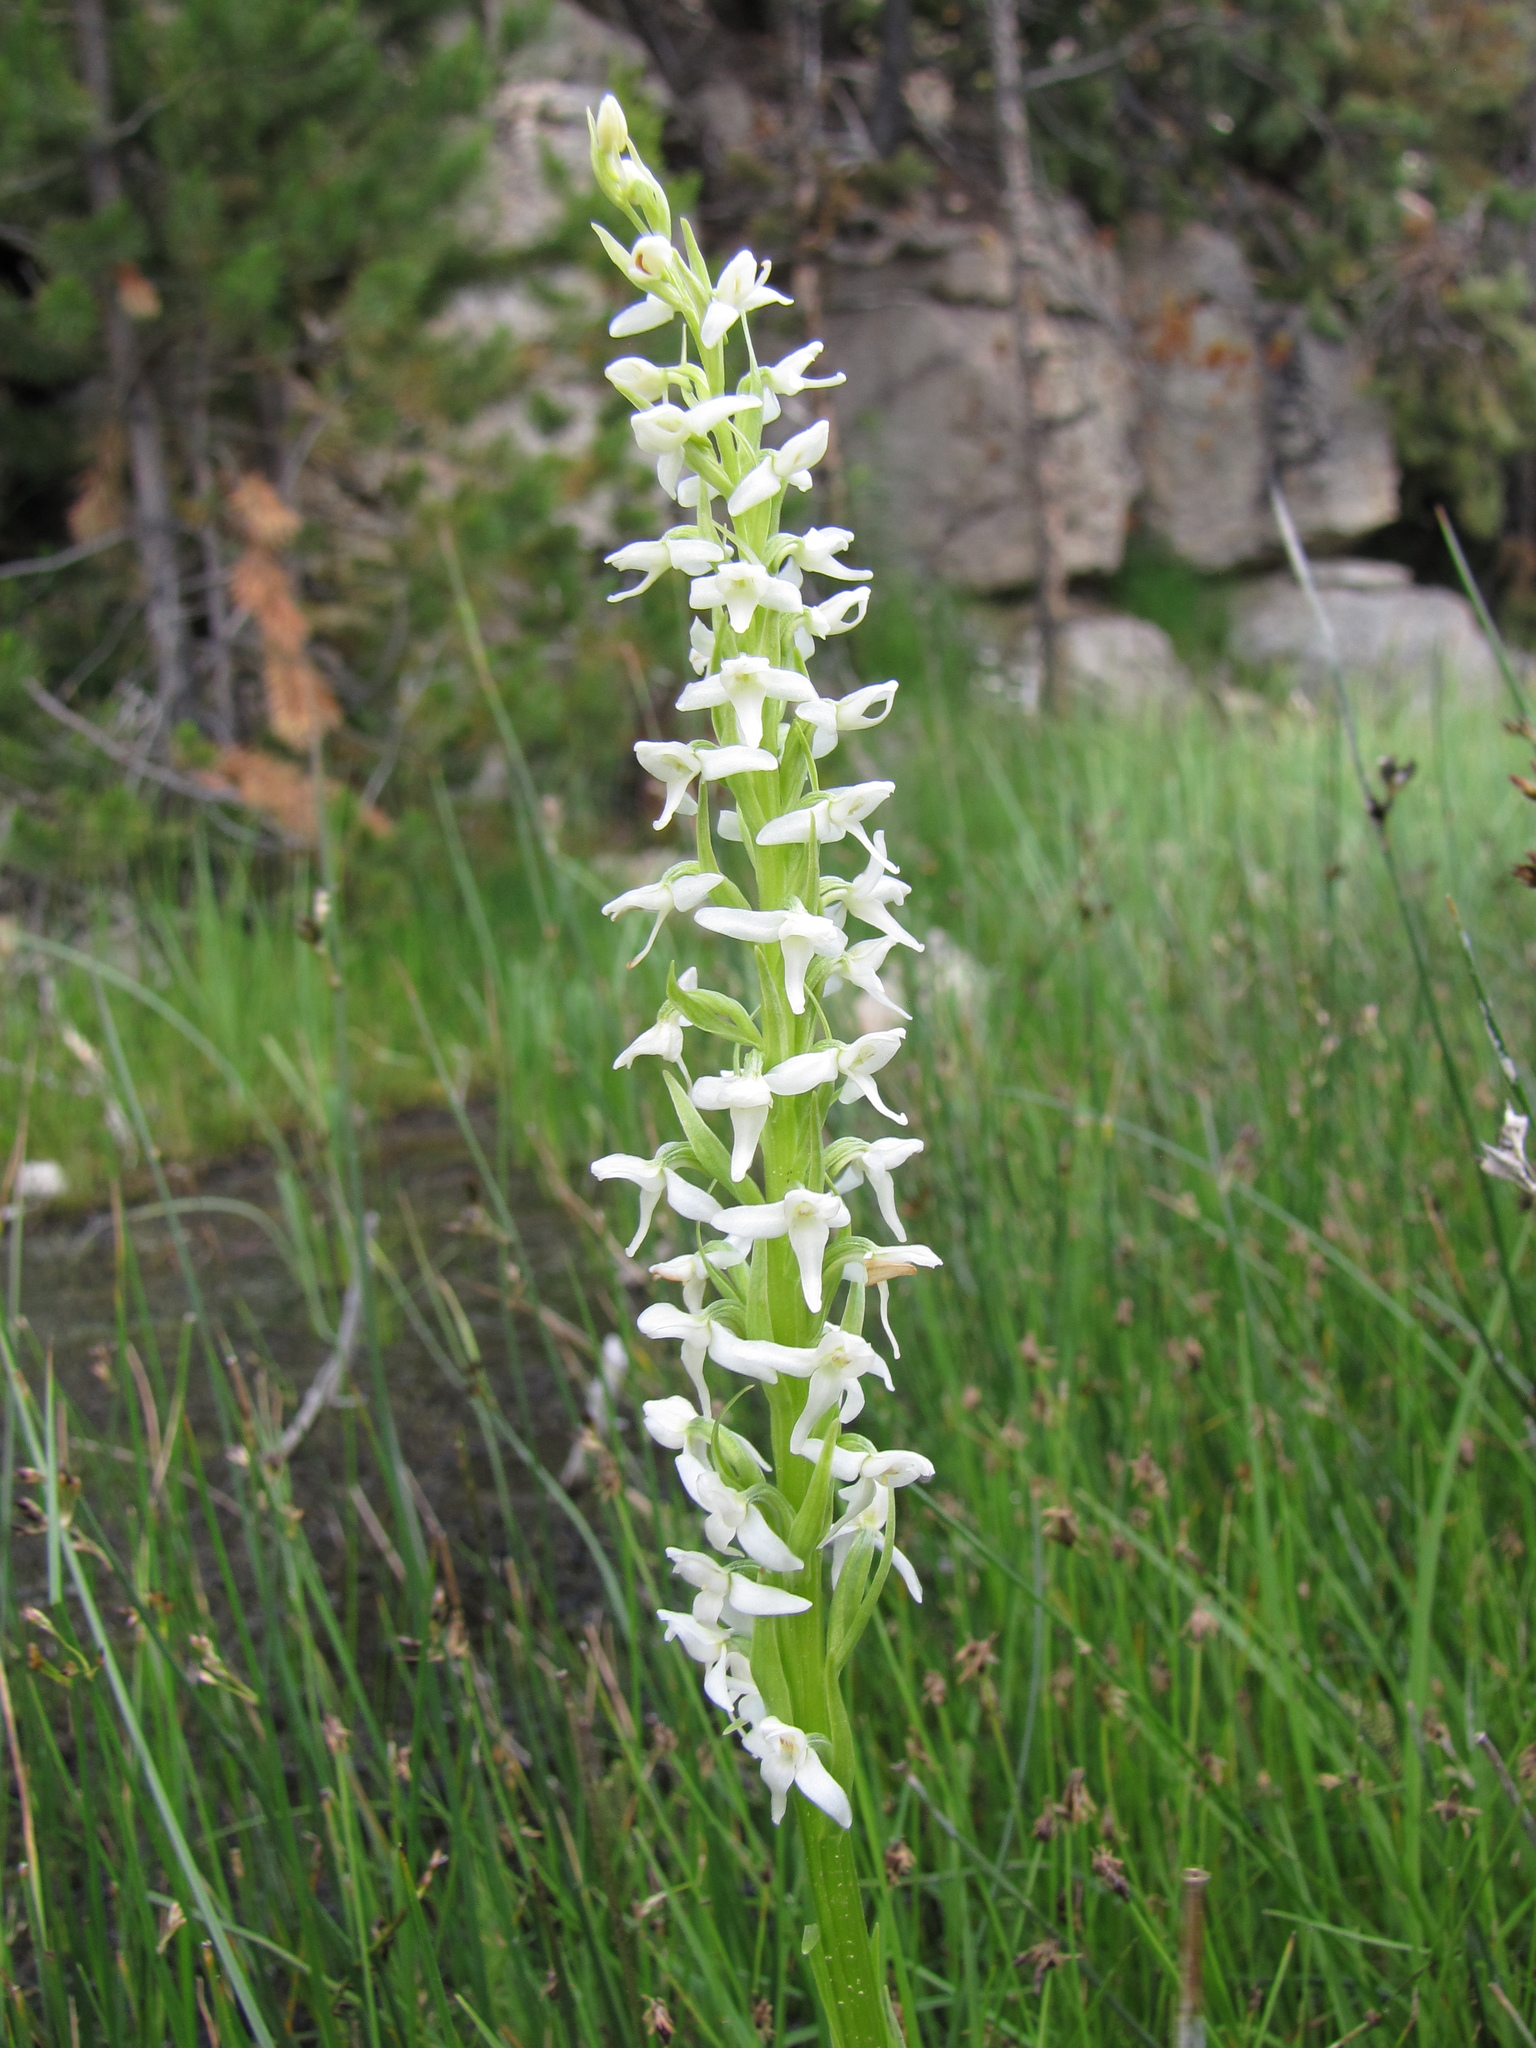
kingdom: Plantae
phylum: Tracheophyta
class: Liliopsida
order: Asparagales
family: Orchidaceae
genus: Platanthera
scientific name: Platanthera dilatata
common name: Bog candles
